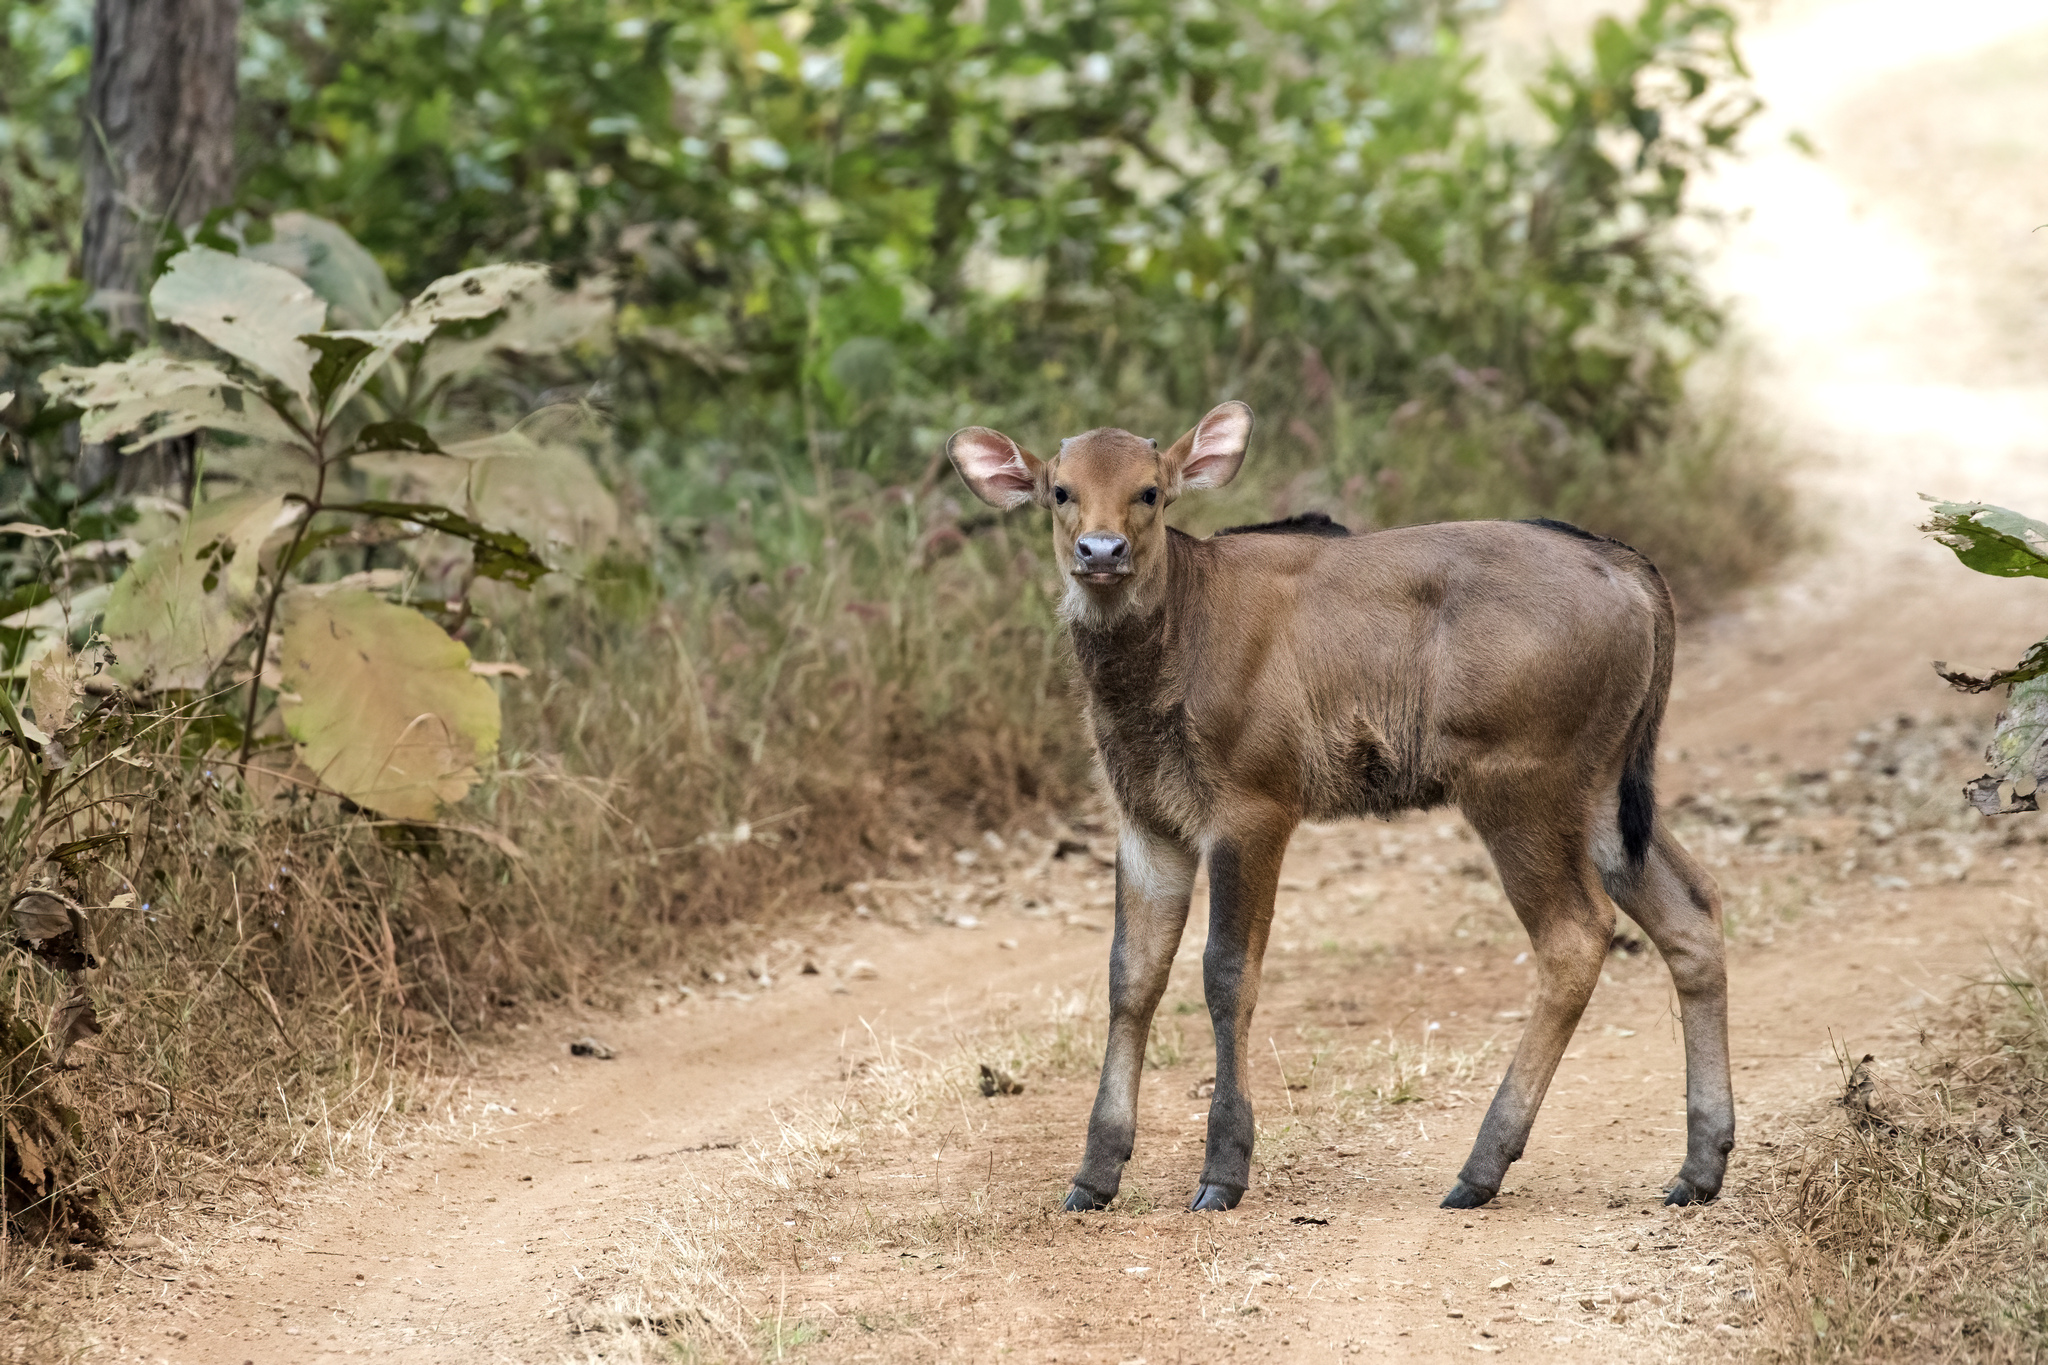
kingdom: Animalia
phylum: Chordata
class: Mammalia
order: Artiodactyla
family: Bovidae
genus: Bos
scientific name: Bos frontalis
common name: Gaur
